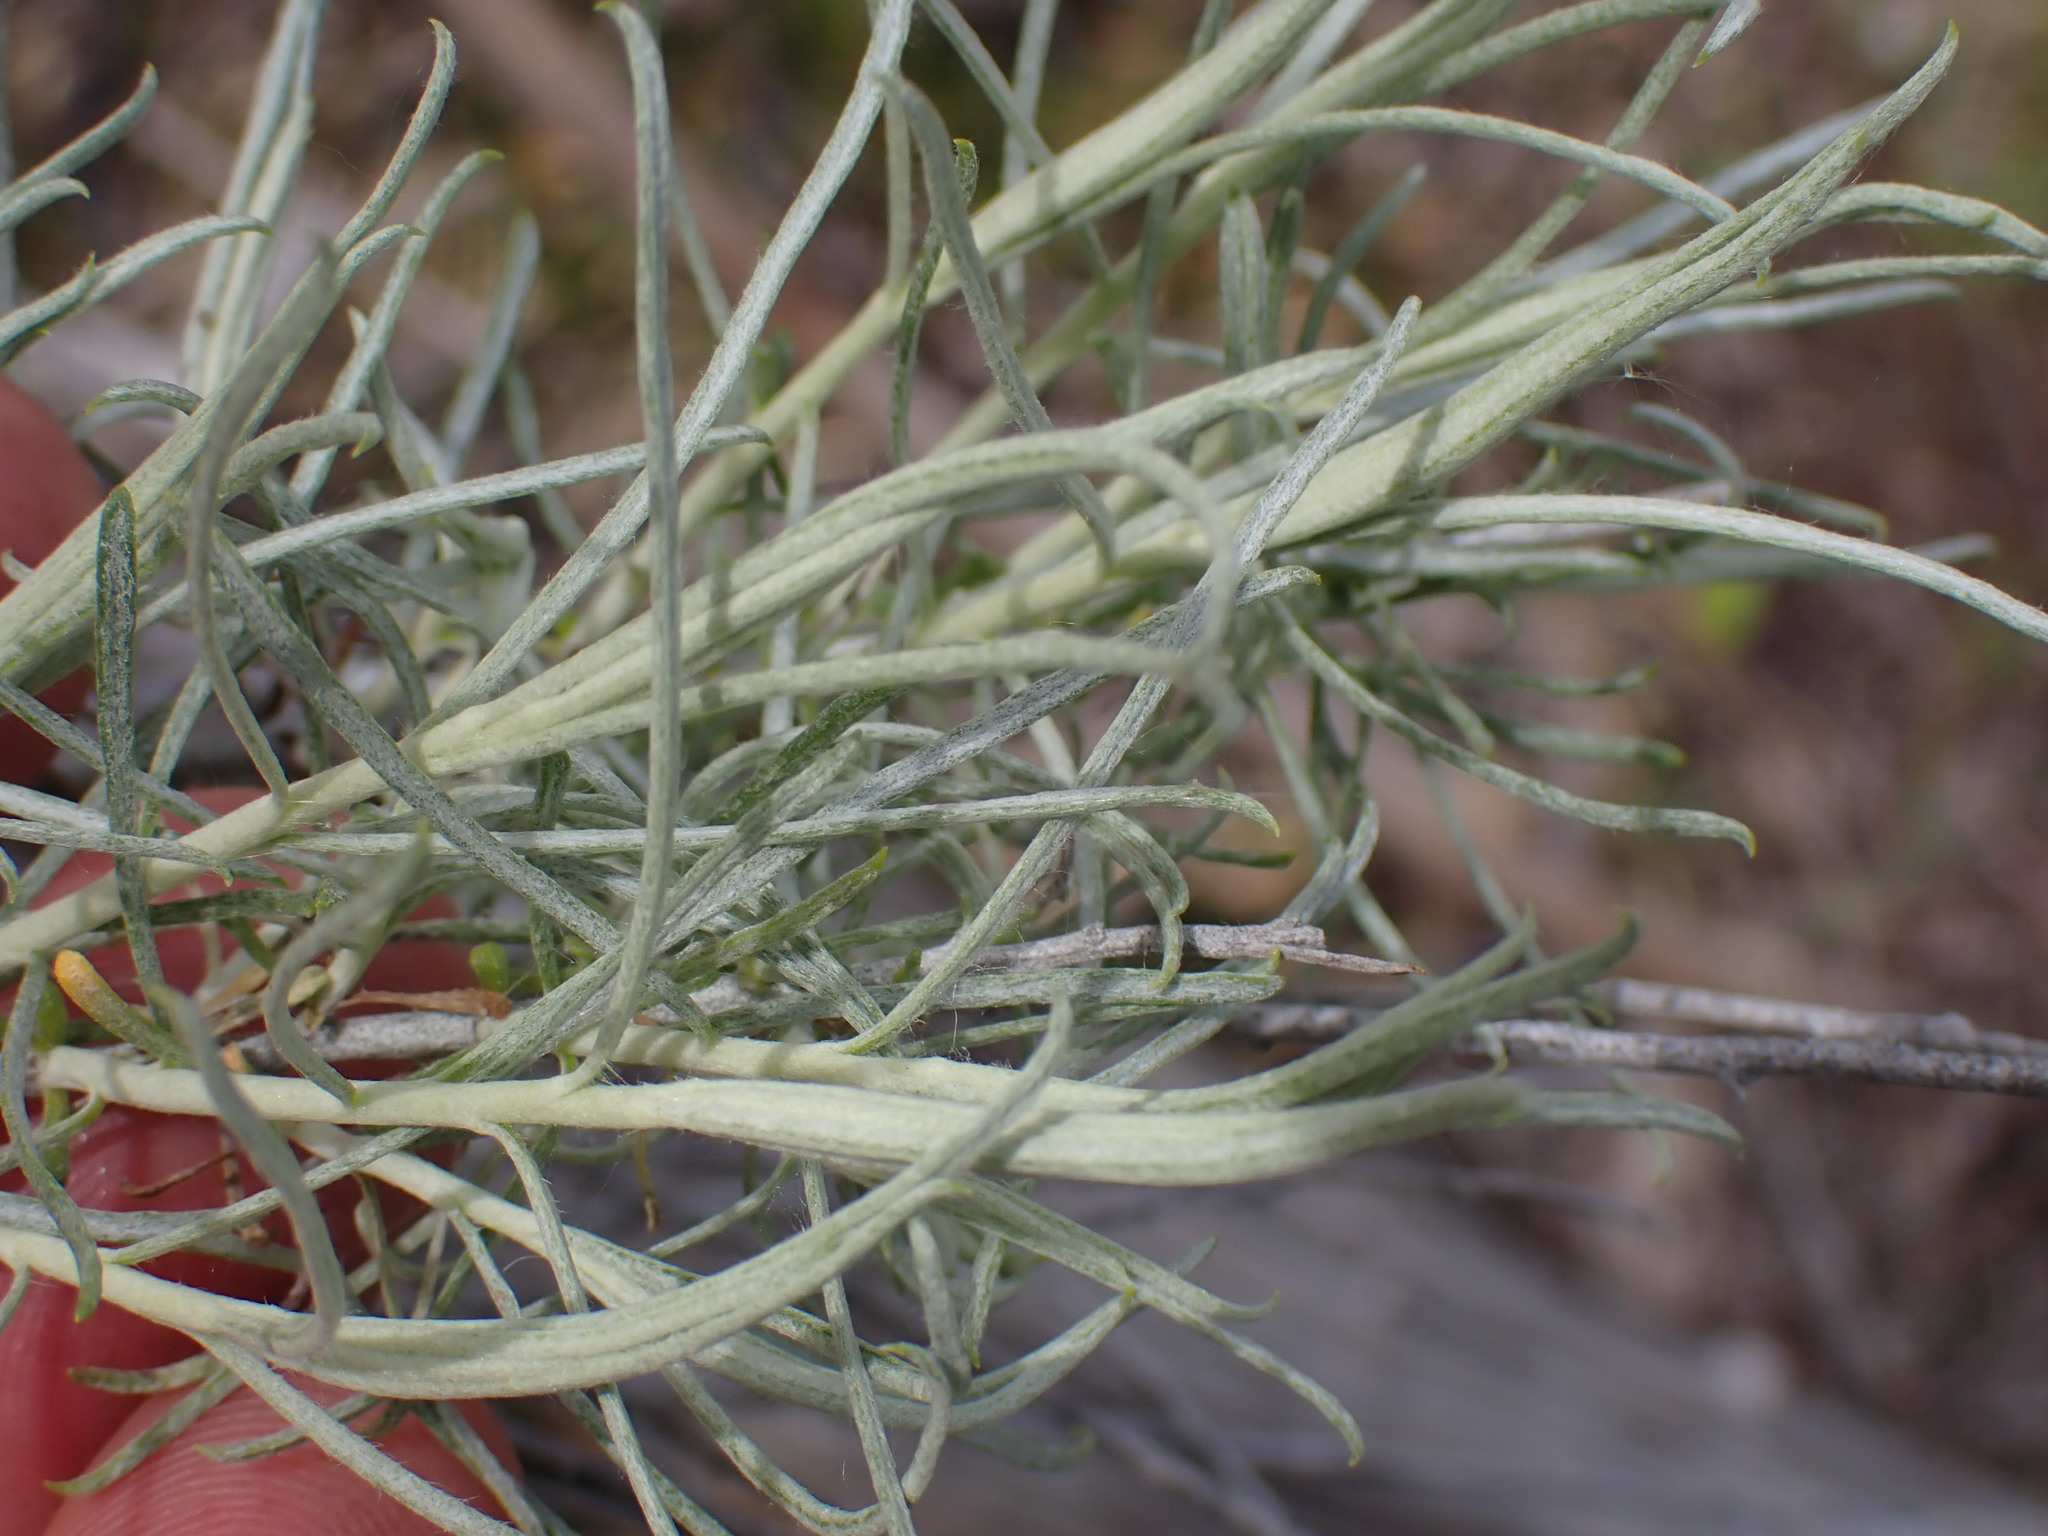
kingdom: Plantae
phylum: Tracheophyta
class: Magnoliopsida
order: Asterales
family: Asteraceae
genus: Ericameria
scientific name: Ericameria nauseosa
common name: Rubber rabbitbrush
